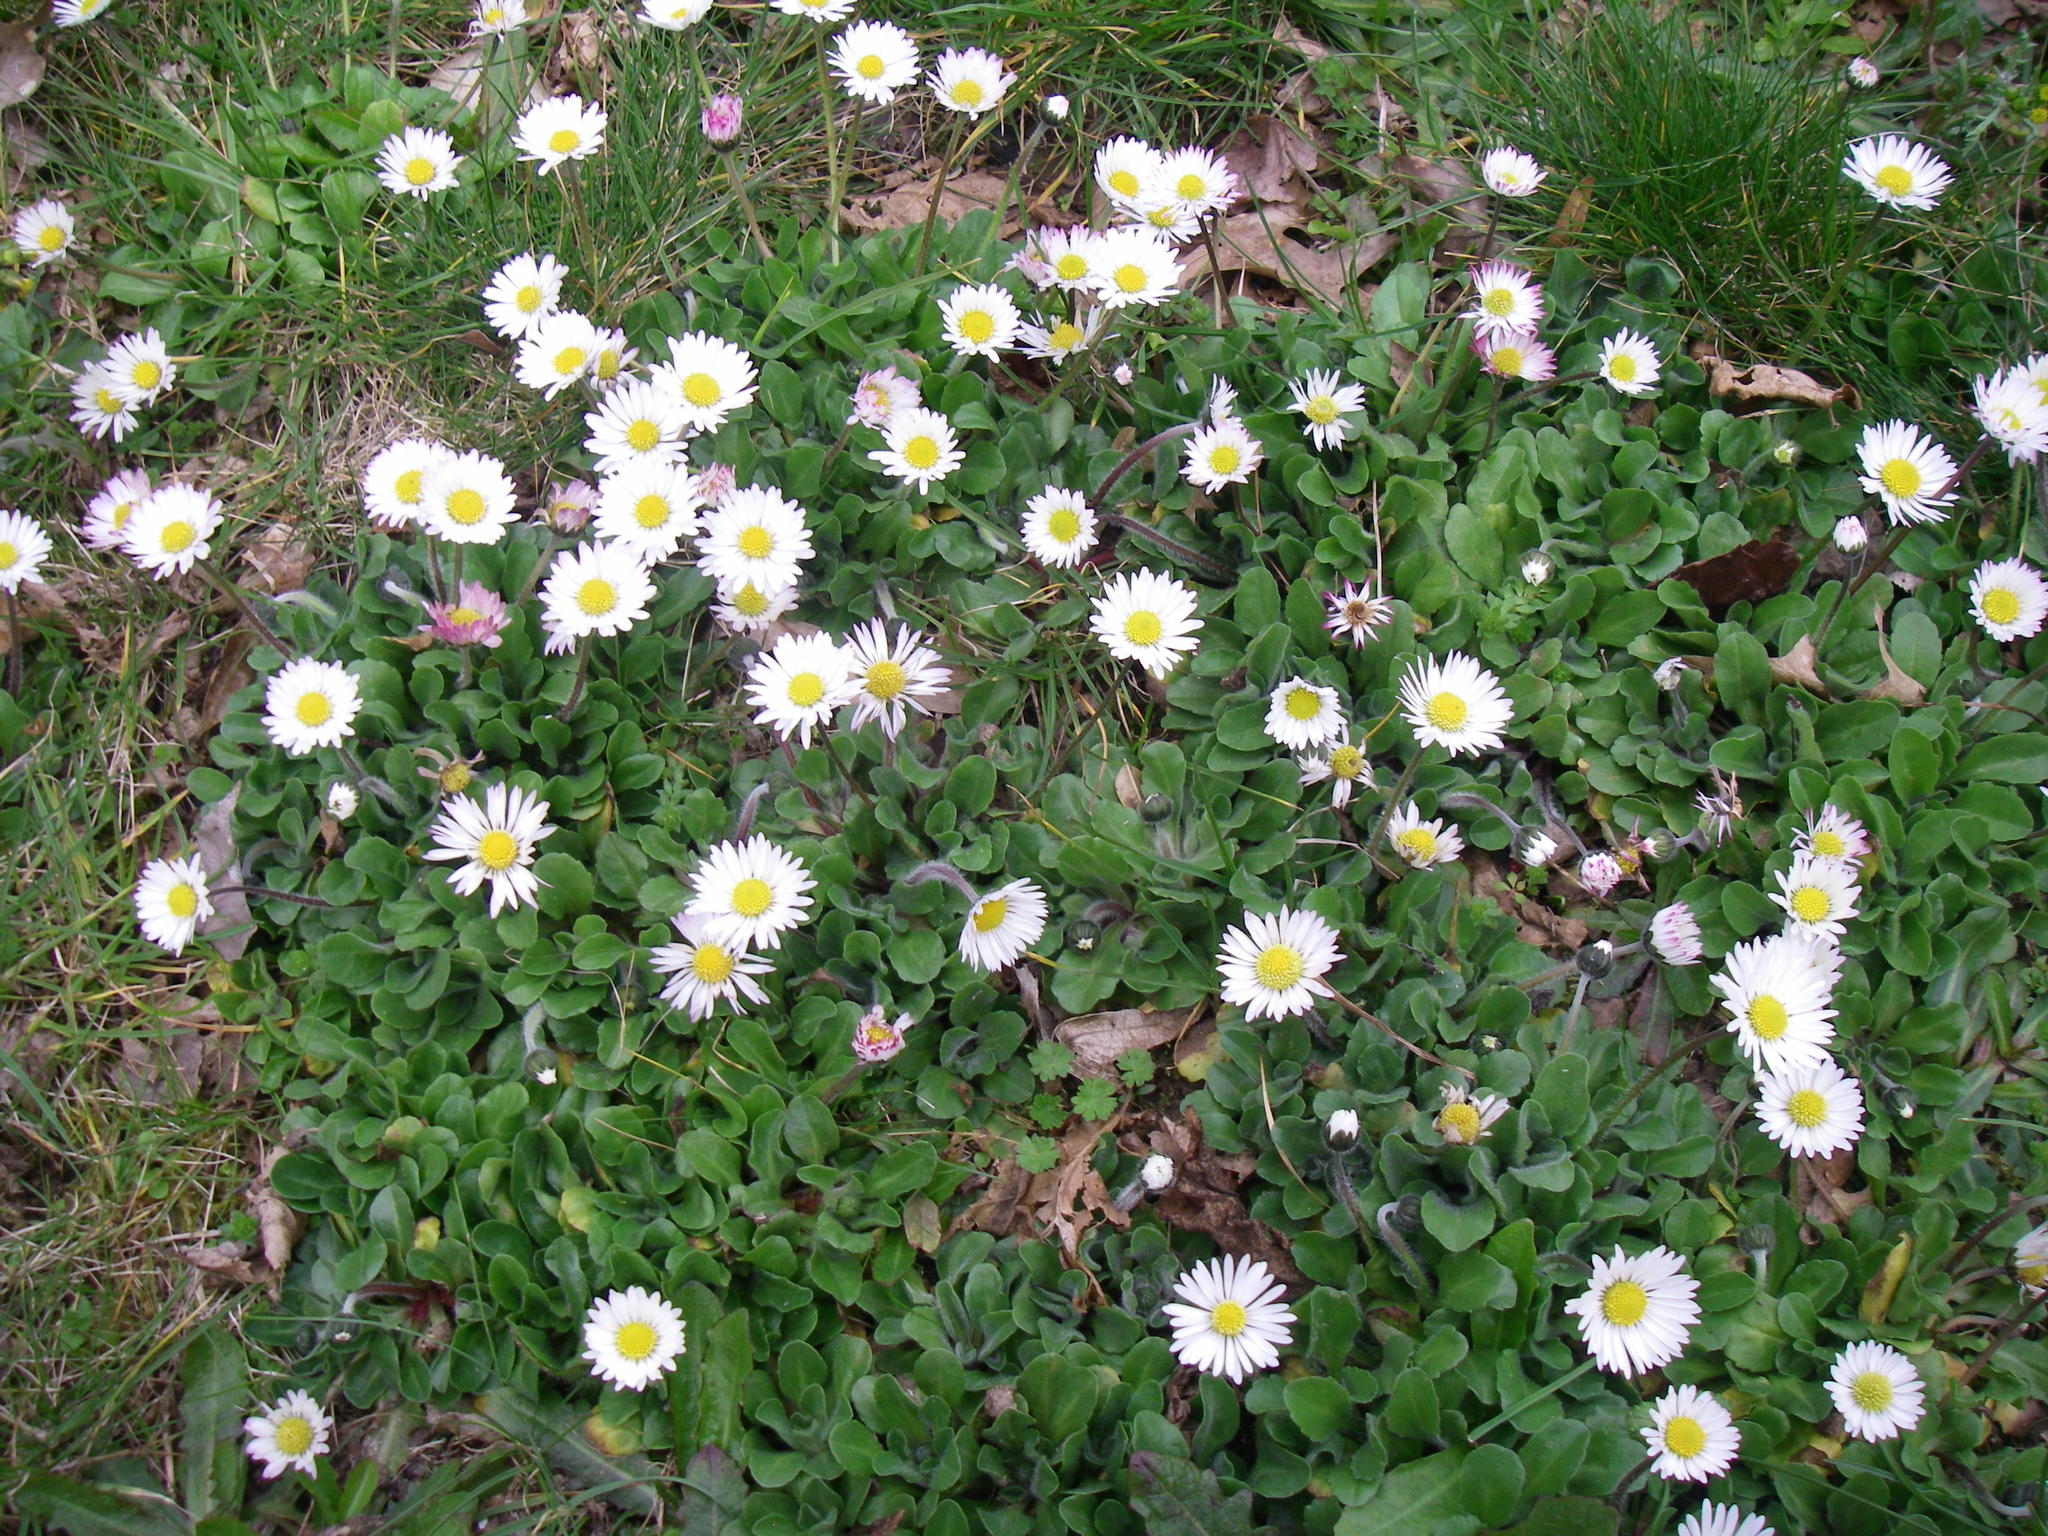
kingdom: Plantae
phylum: Tracheophyta
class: Magnoliopsida
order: Asterales
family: Asteraceae
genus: Bellis
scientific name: Bellis perennis
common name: Lawndaisy
